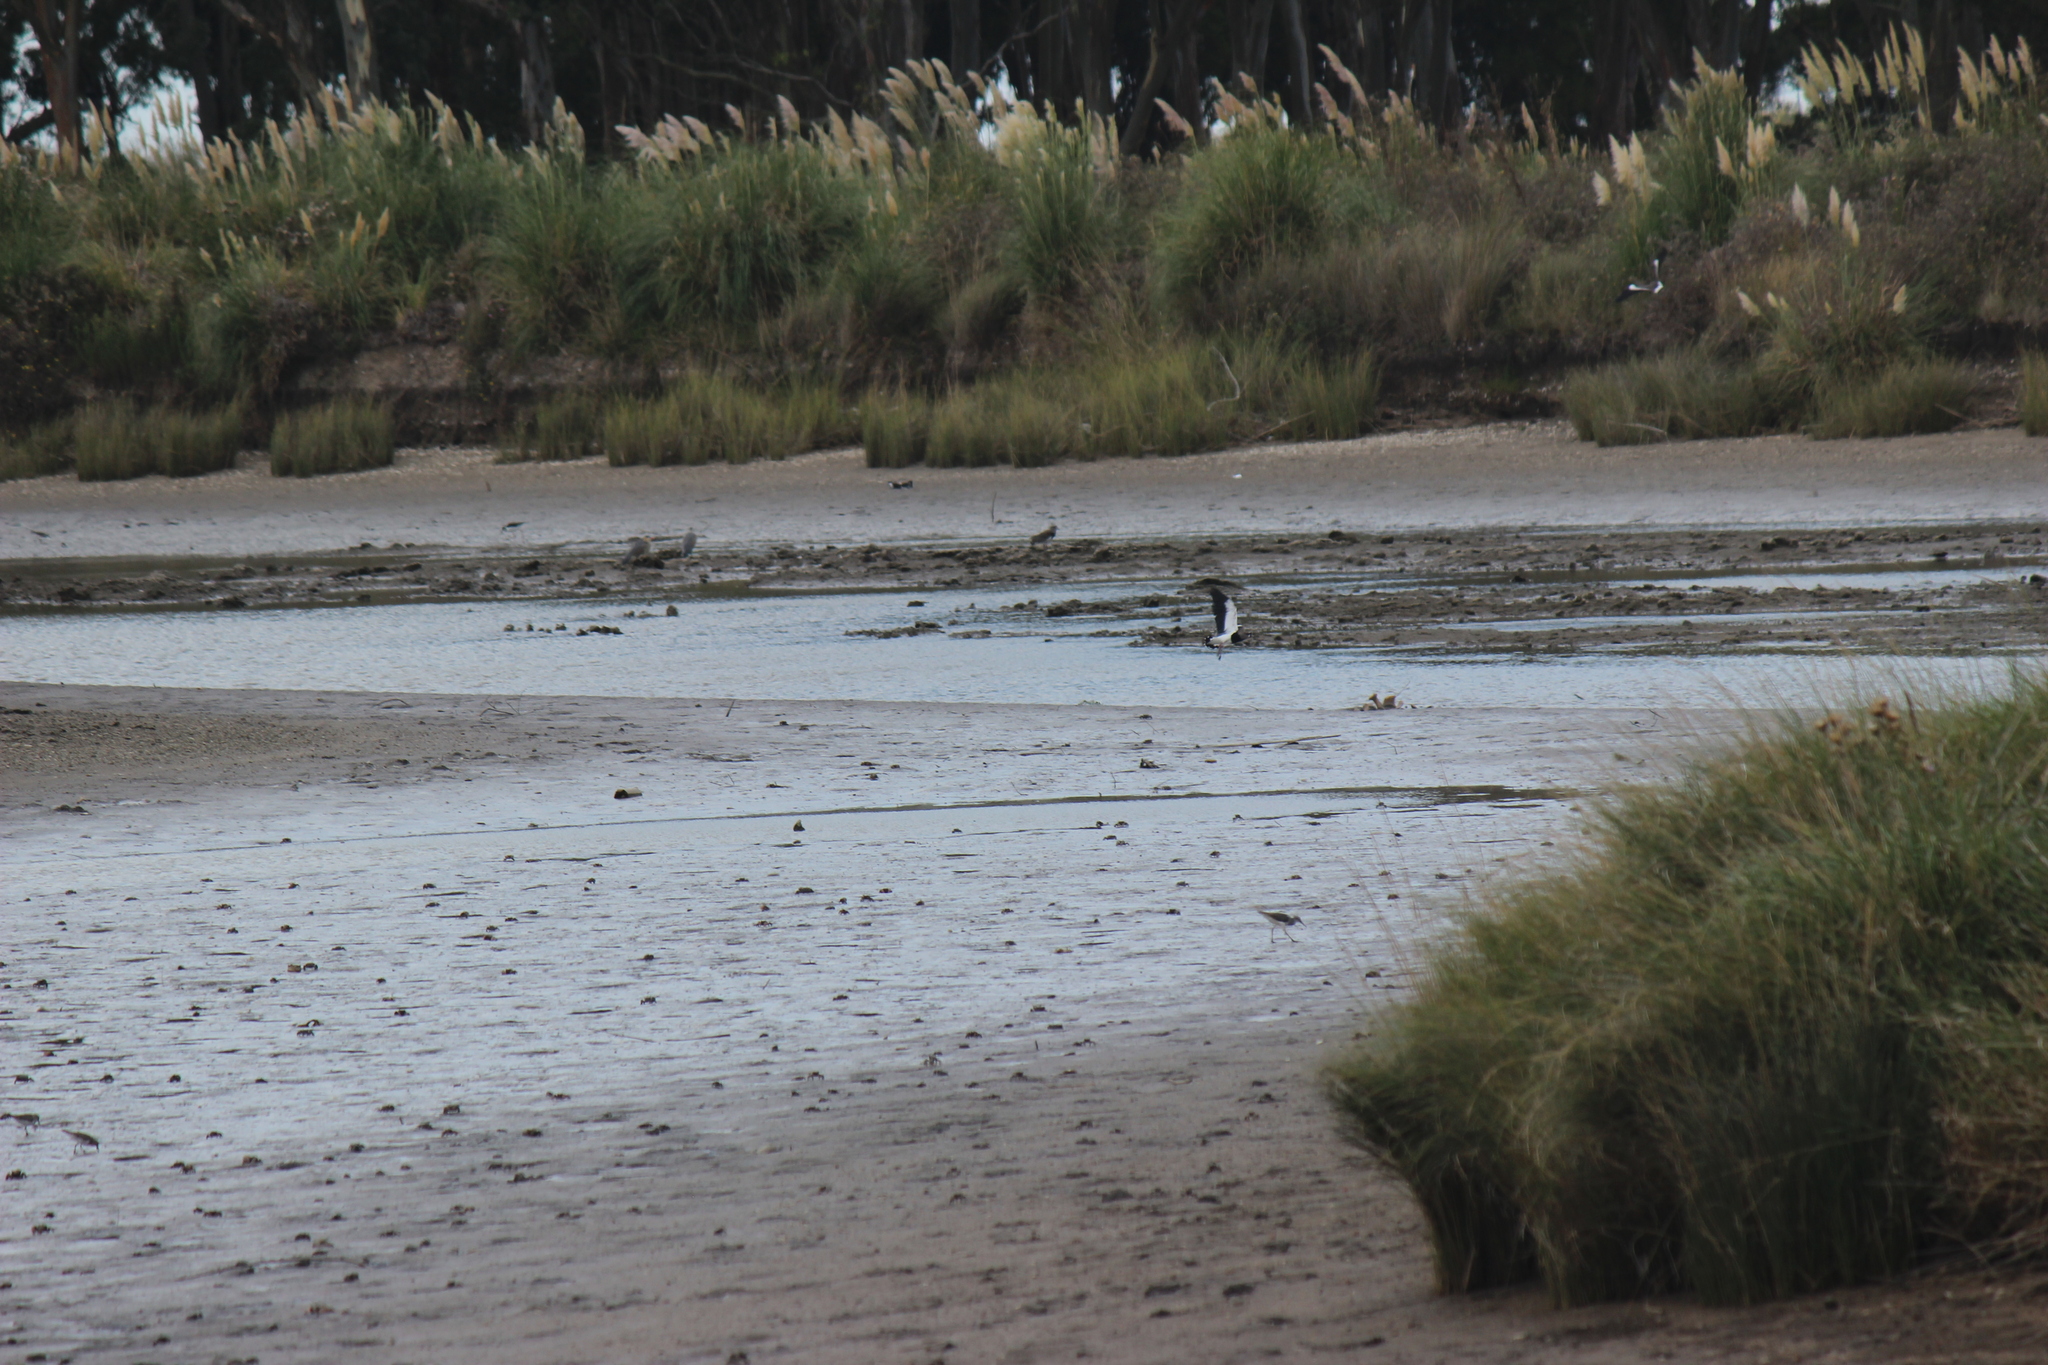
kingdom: Animalia
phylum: Chordata
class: Aves
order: Charadriiformes
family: Charadriidae
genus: Vanellus
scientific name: Vanellus chilensis
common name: Southern lapwing
